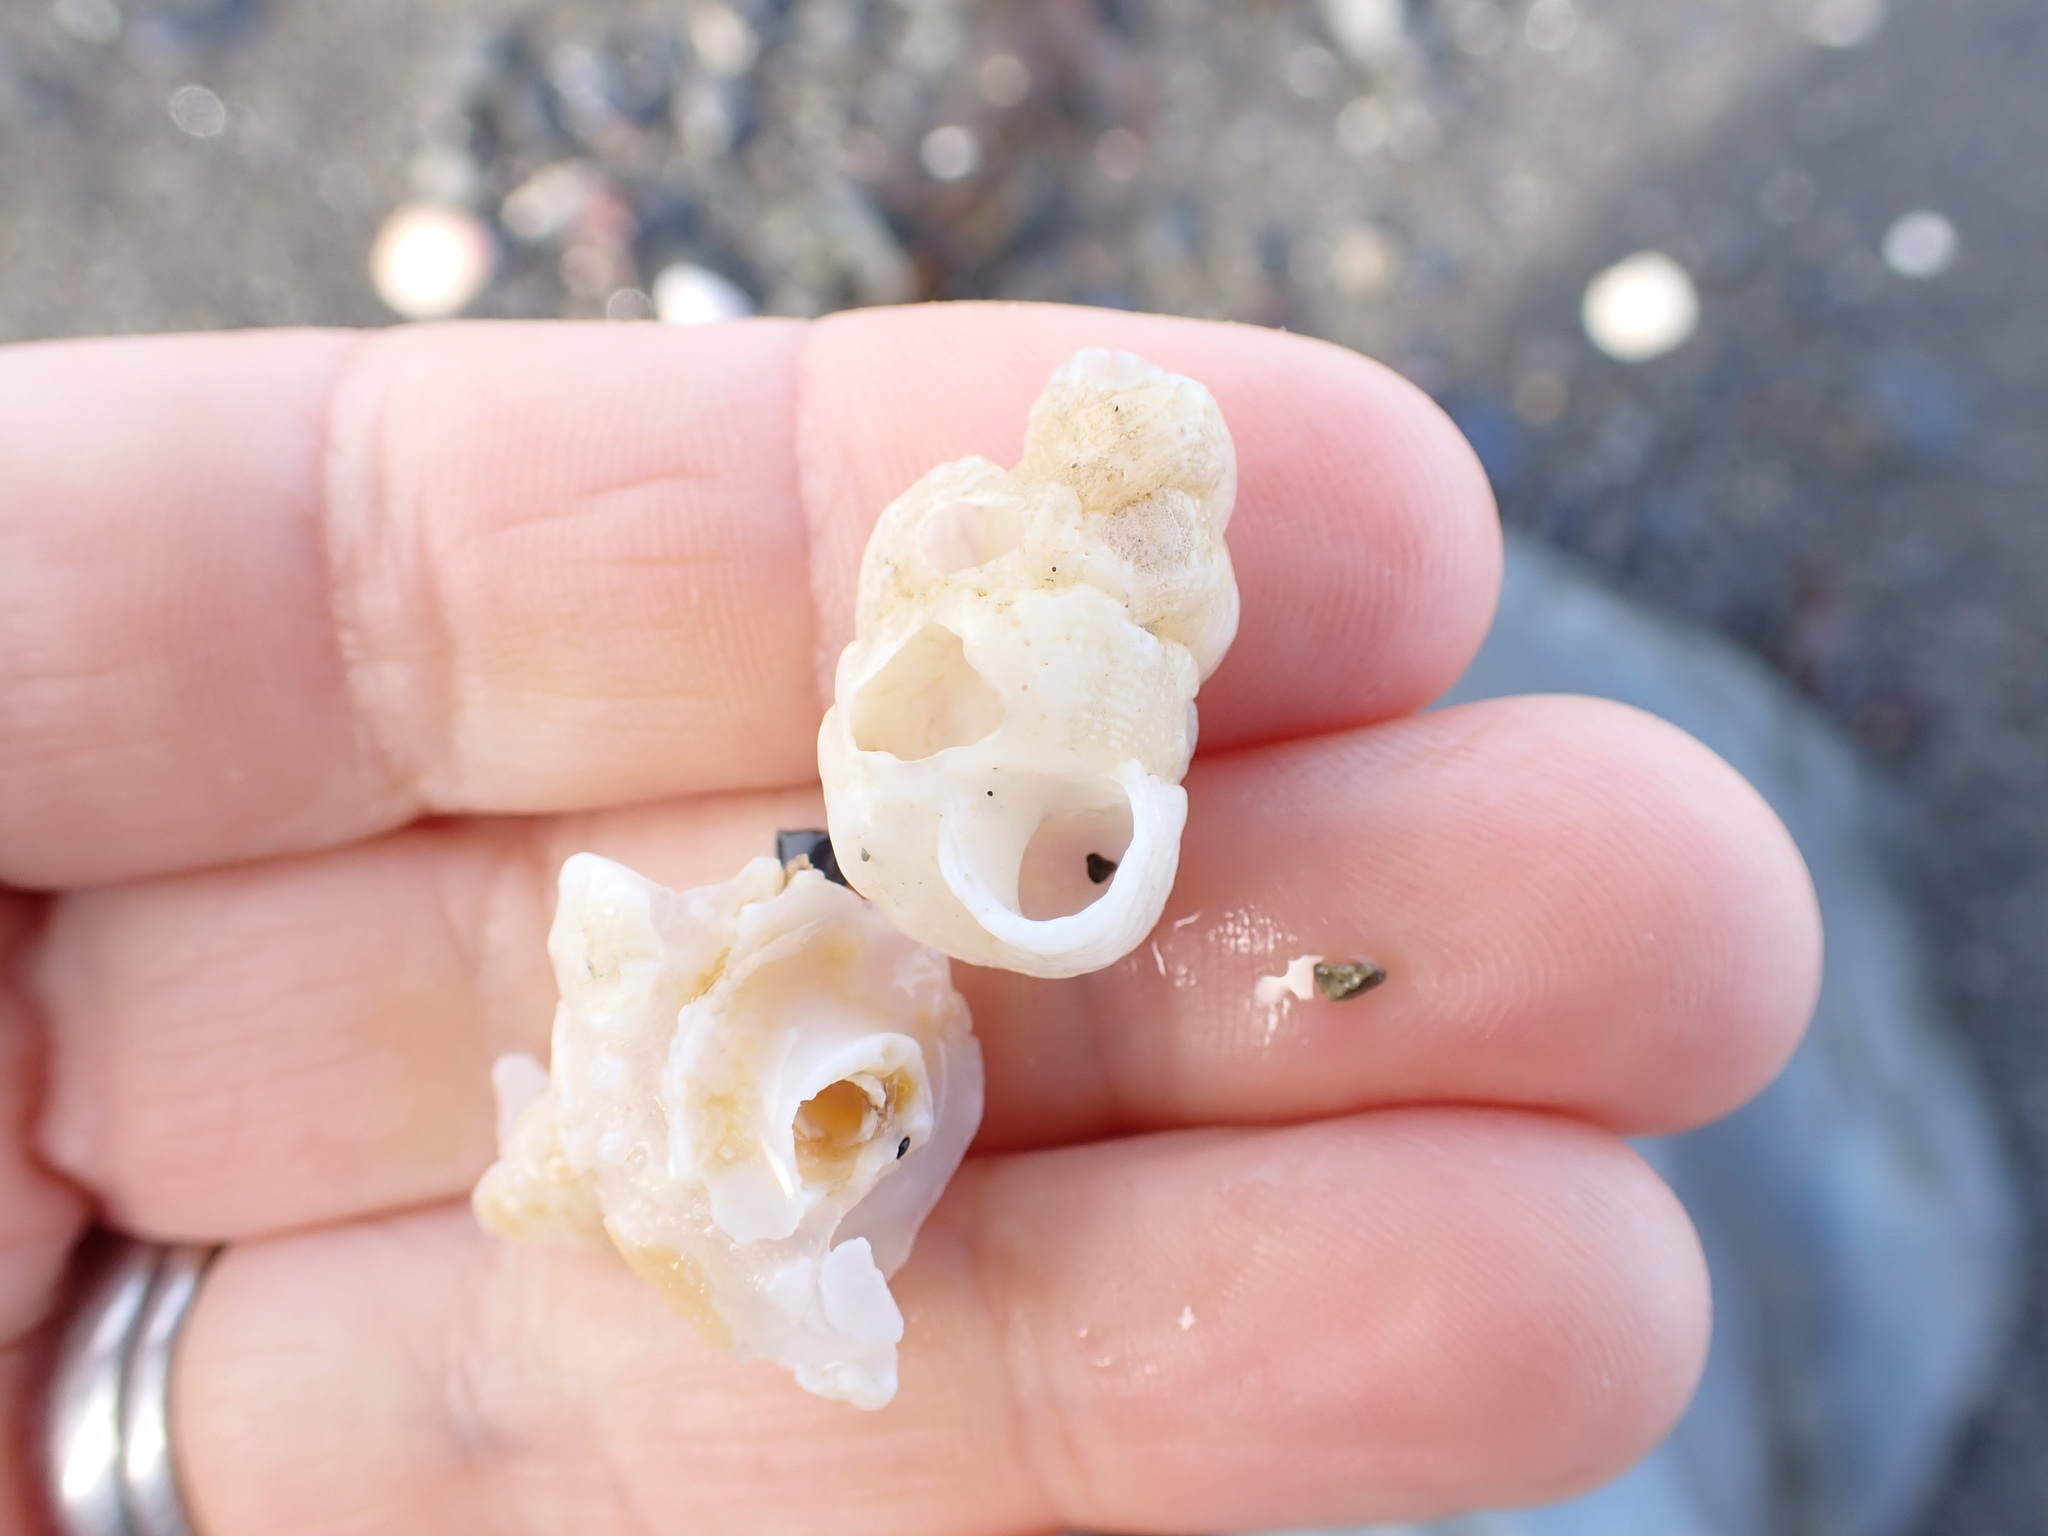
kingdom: Animalia
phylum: Mollusca
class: Gastropoda
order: Littorinimorpha
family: Vermetidae
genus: Thylacodes
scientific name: Thylacodes zelandicus
